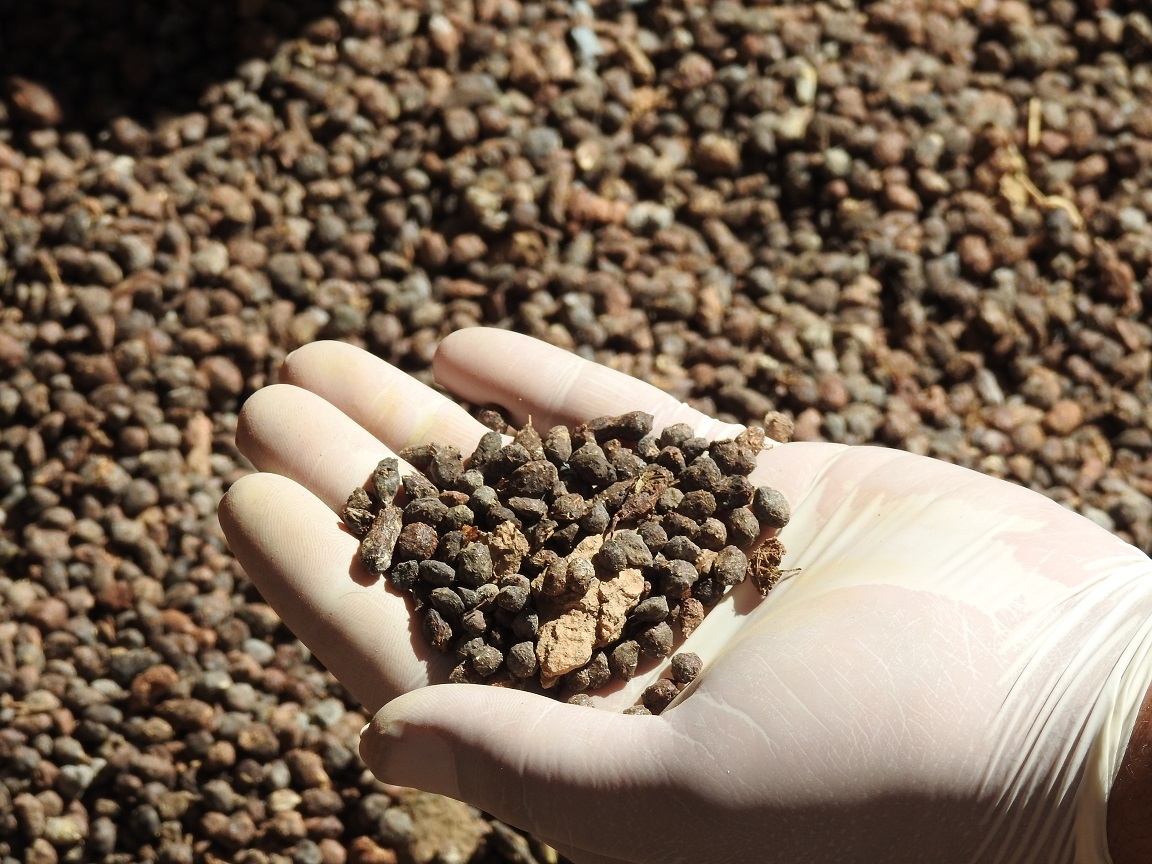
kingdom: Animalia
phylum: Chordata
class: Mammalia
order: Hyracoidea
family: Procaviidae
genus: Procavia
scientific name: Procavia capensis
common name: Rock hyrax
